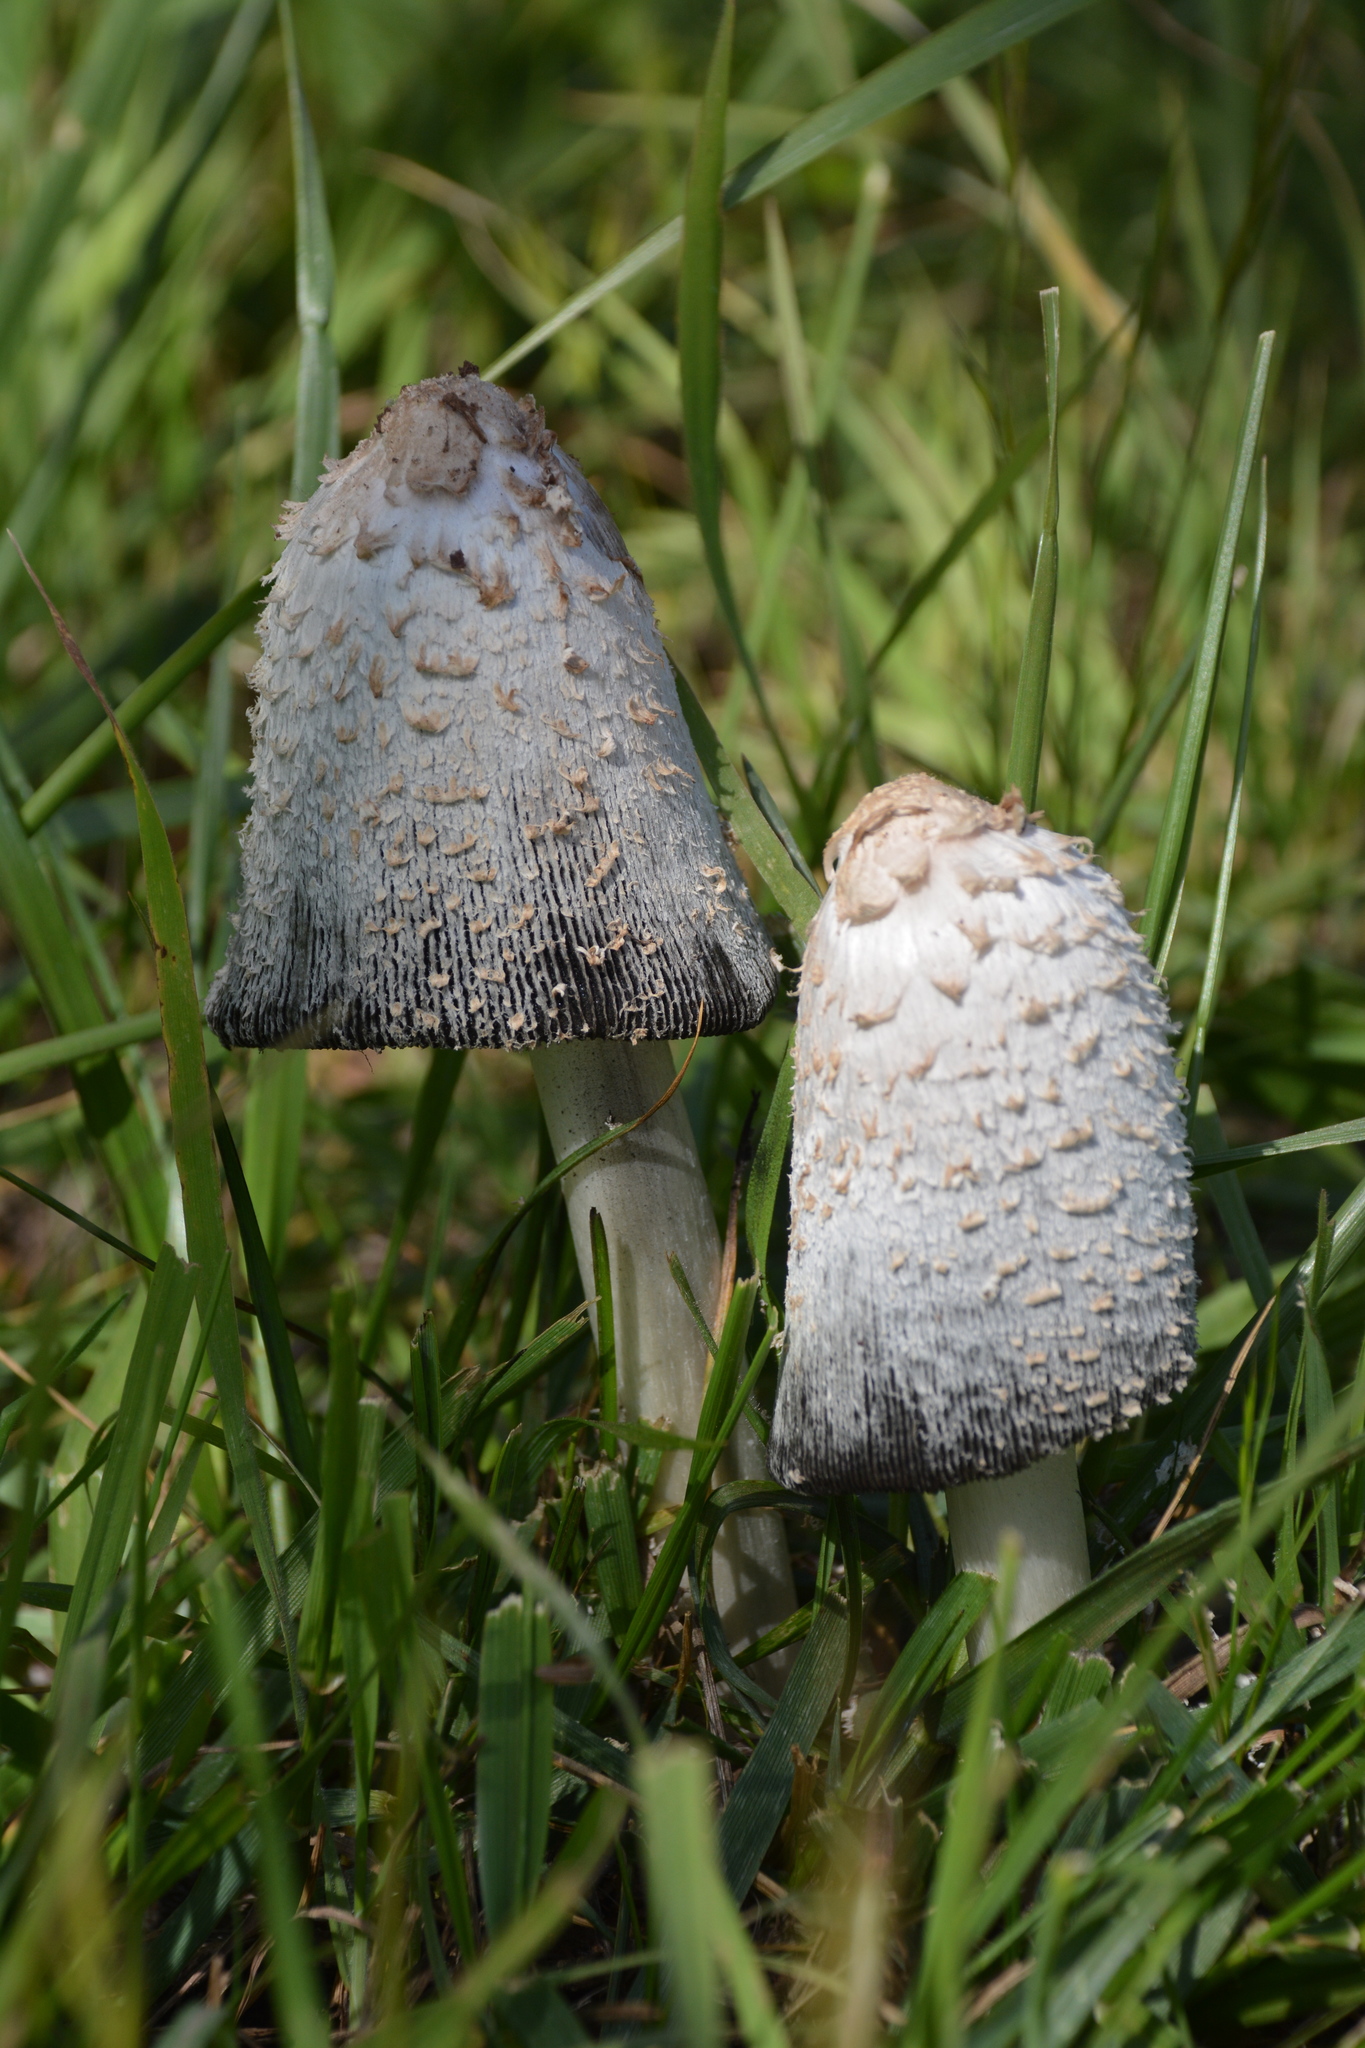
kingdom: Fungi
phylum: Basidiomycota
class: Agaricomycetes
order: Agaricales
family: Agaricaceae
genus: Coprinus
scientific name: Coprinus comatus
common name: Lawyer's wig
